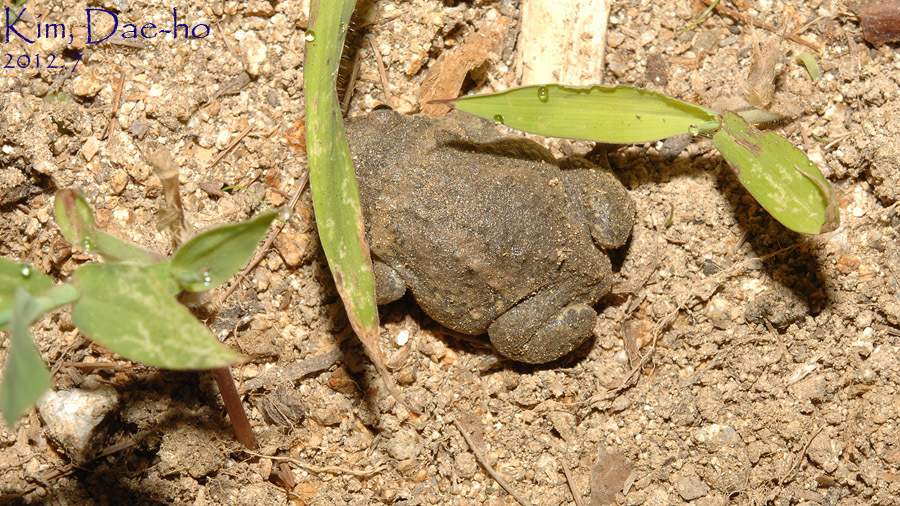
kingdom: Animalia
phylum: Chordata
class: Amphibia
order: Anura
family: Microhylidae
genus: Kaloula
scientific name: Kaloula borealis
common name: Boreal digging frog
